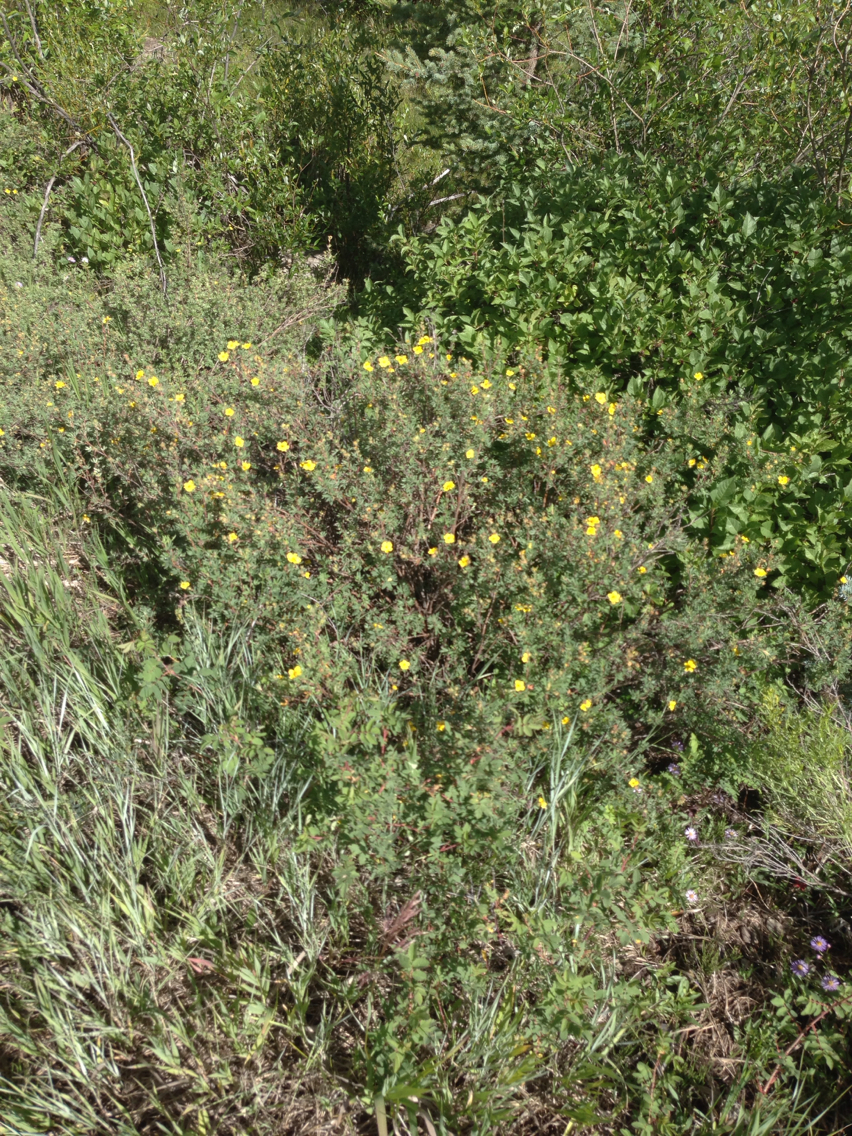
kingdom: Plantae
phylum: Tracheophyta
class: Magnoliopsida
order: Rosales
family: Rosaceae
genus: Dasiphora
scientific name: Dasiphora fruticosa
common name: Shrubby cinquefoil
